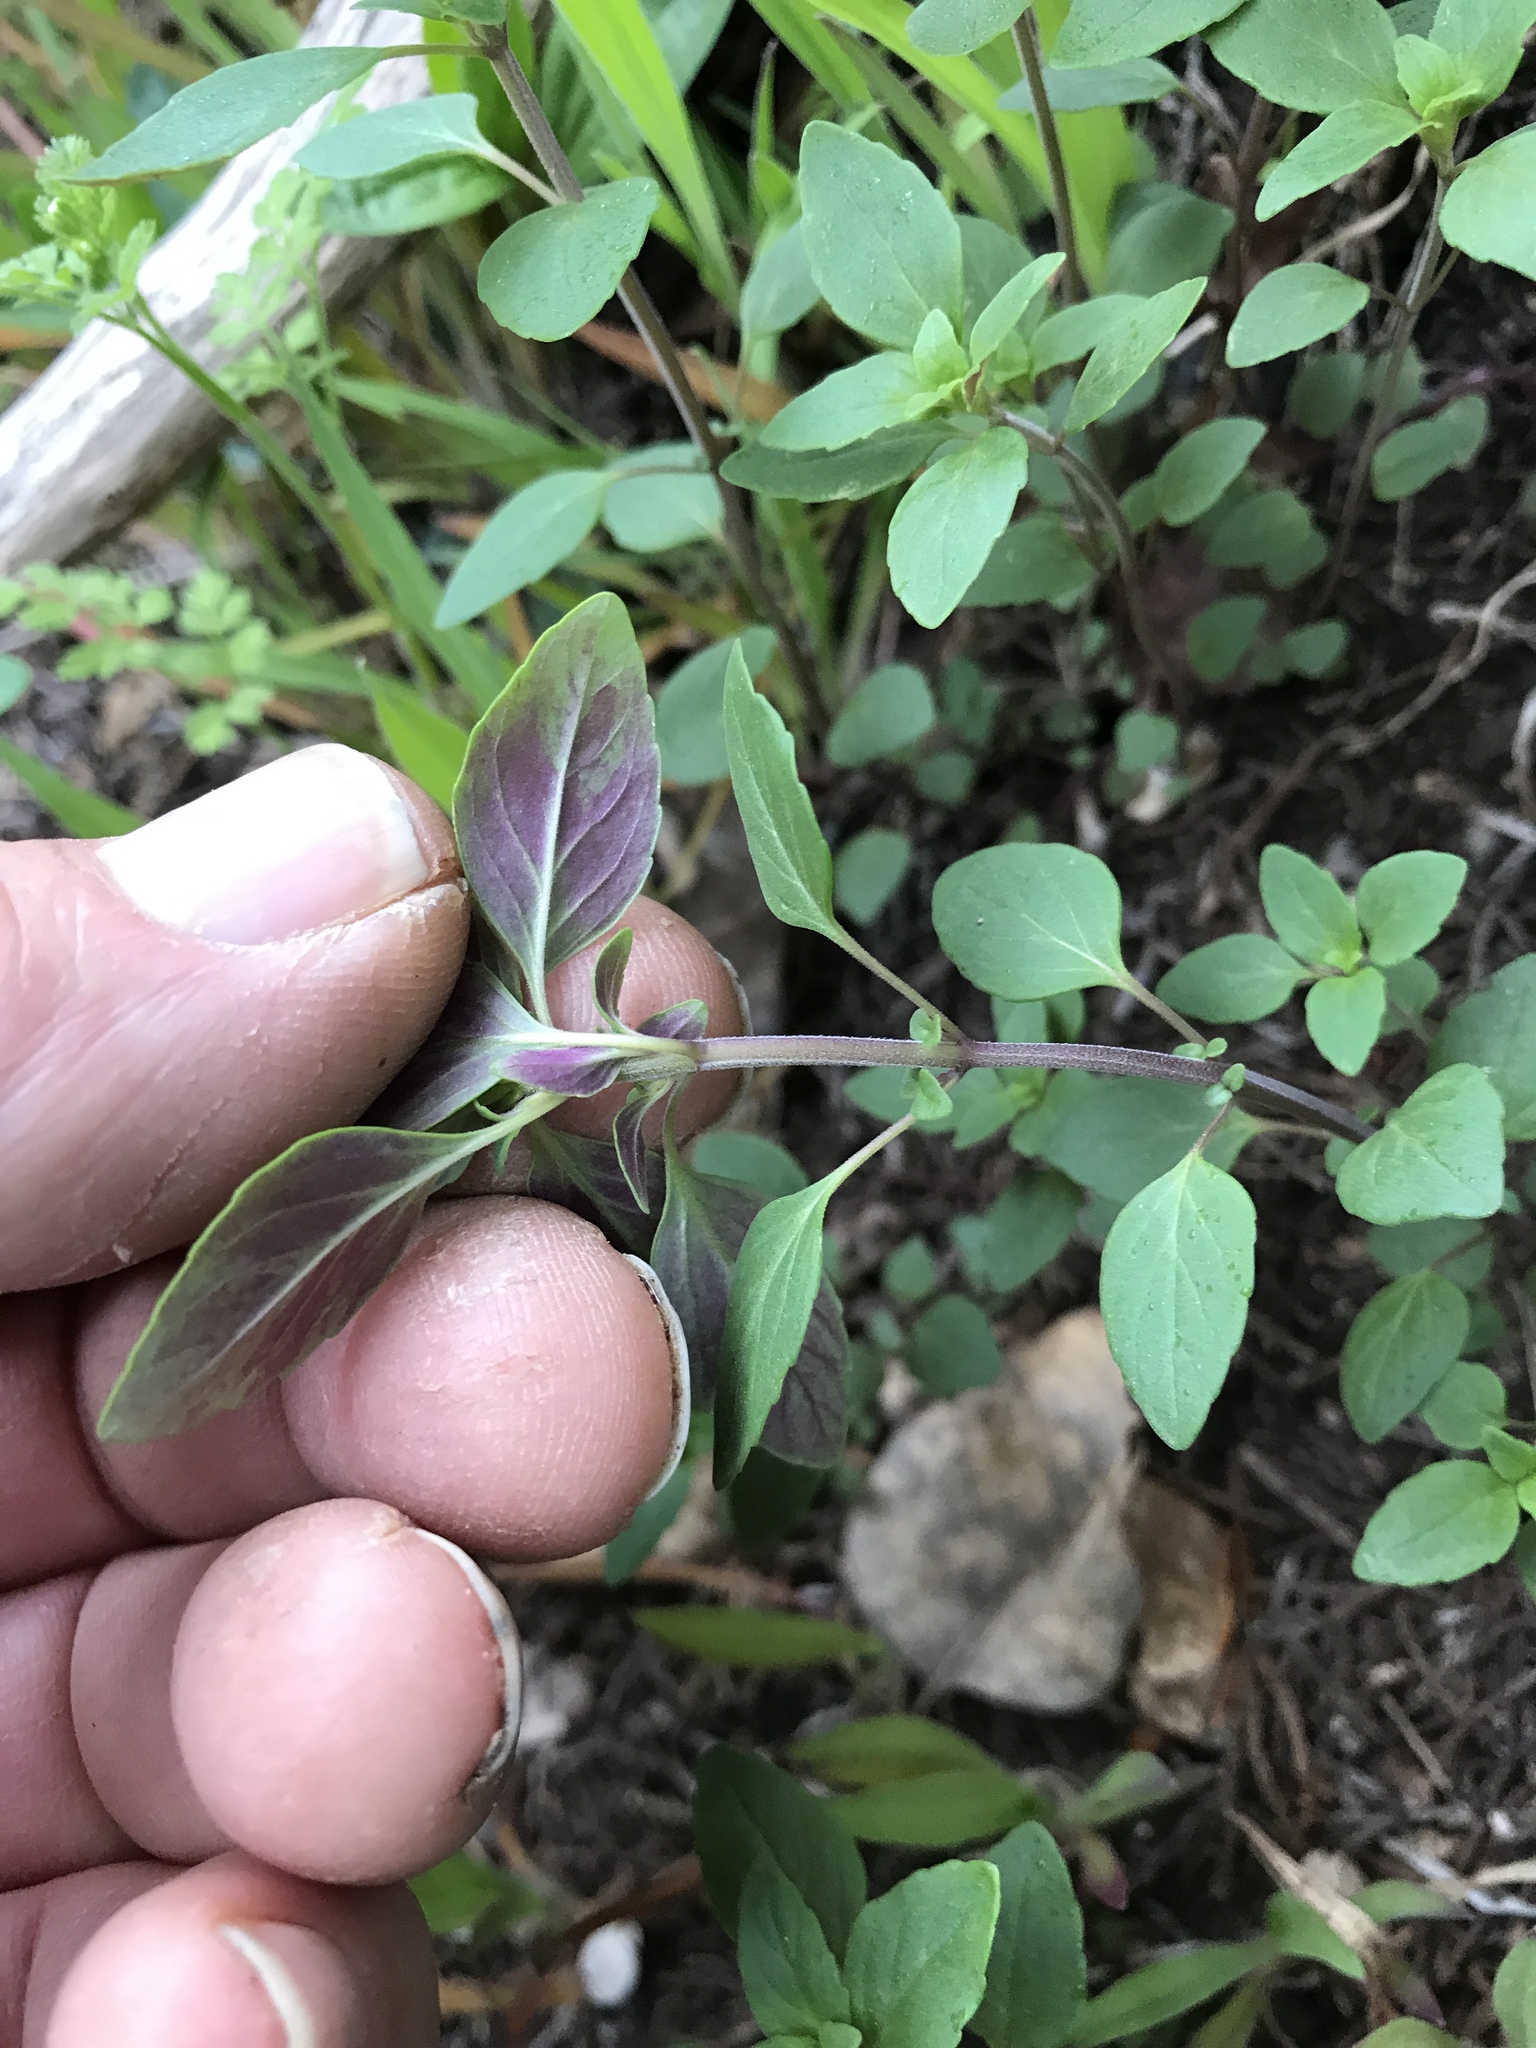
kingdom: Plantae
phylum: Tracheophyta
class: Magnoliopsida
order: Lamiales
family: Lamiaceae
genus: Hedeoma
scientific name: Hedeoma acinoides
